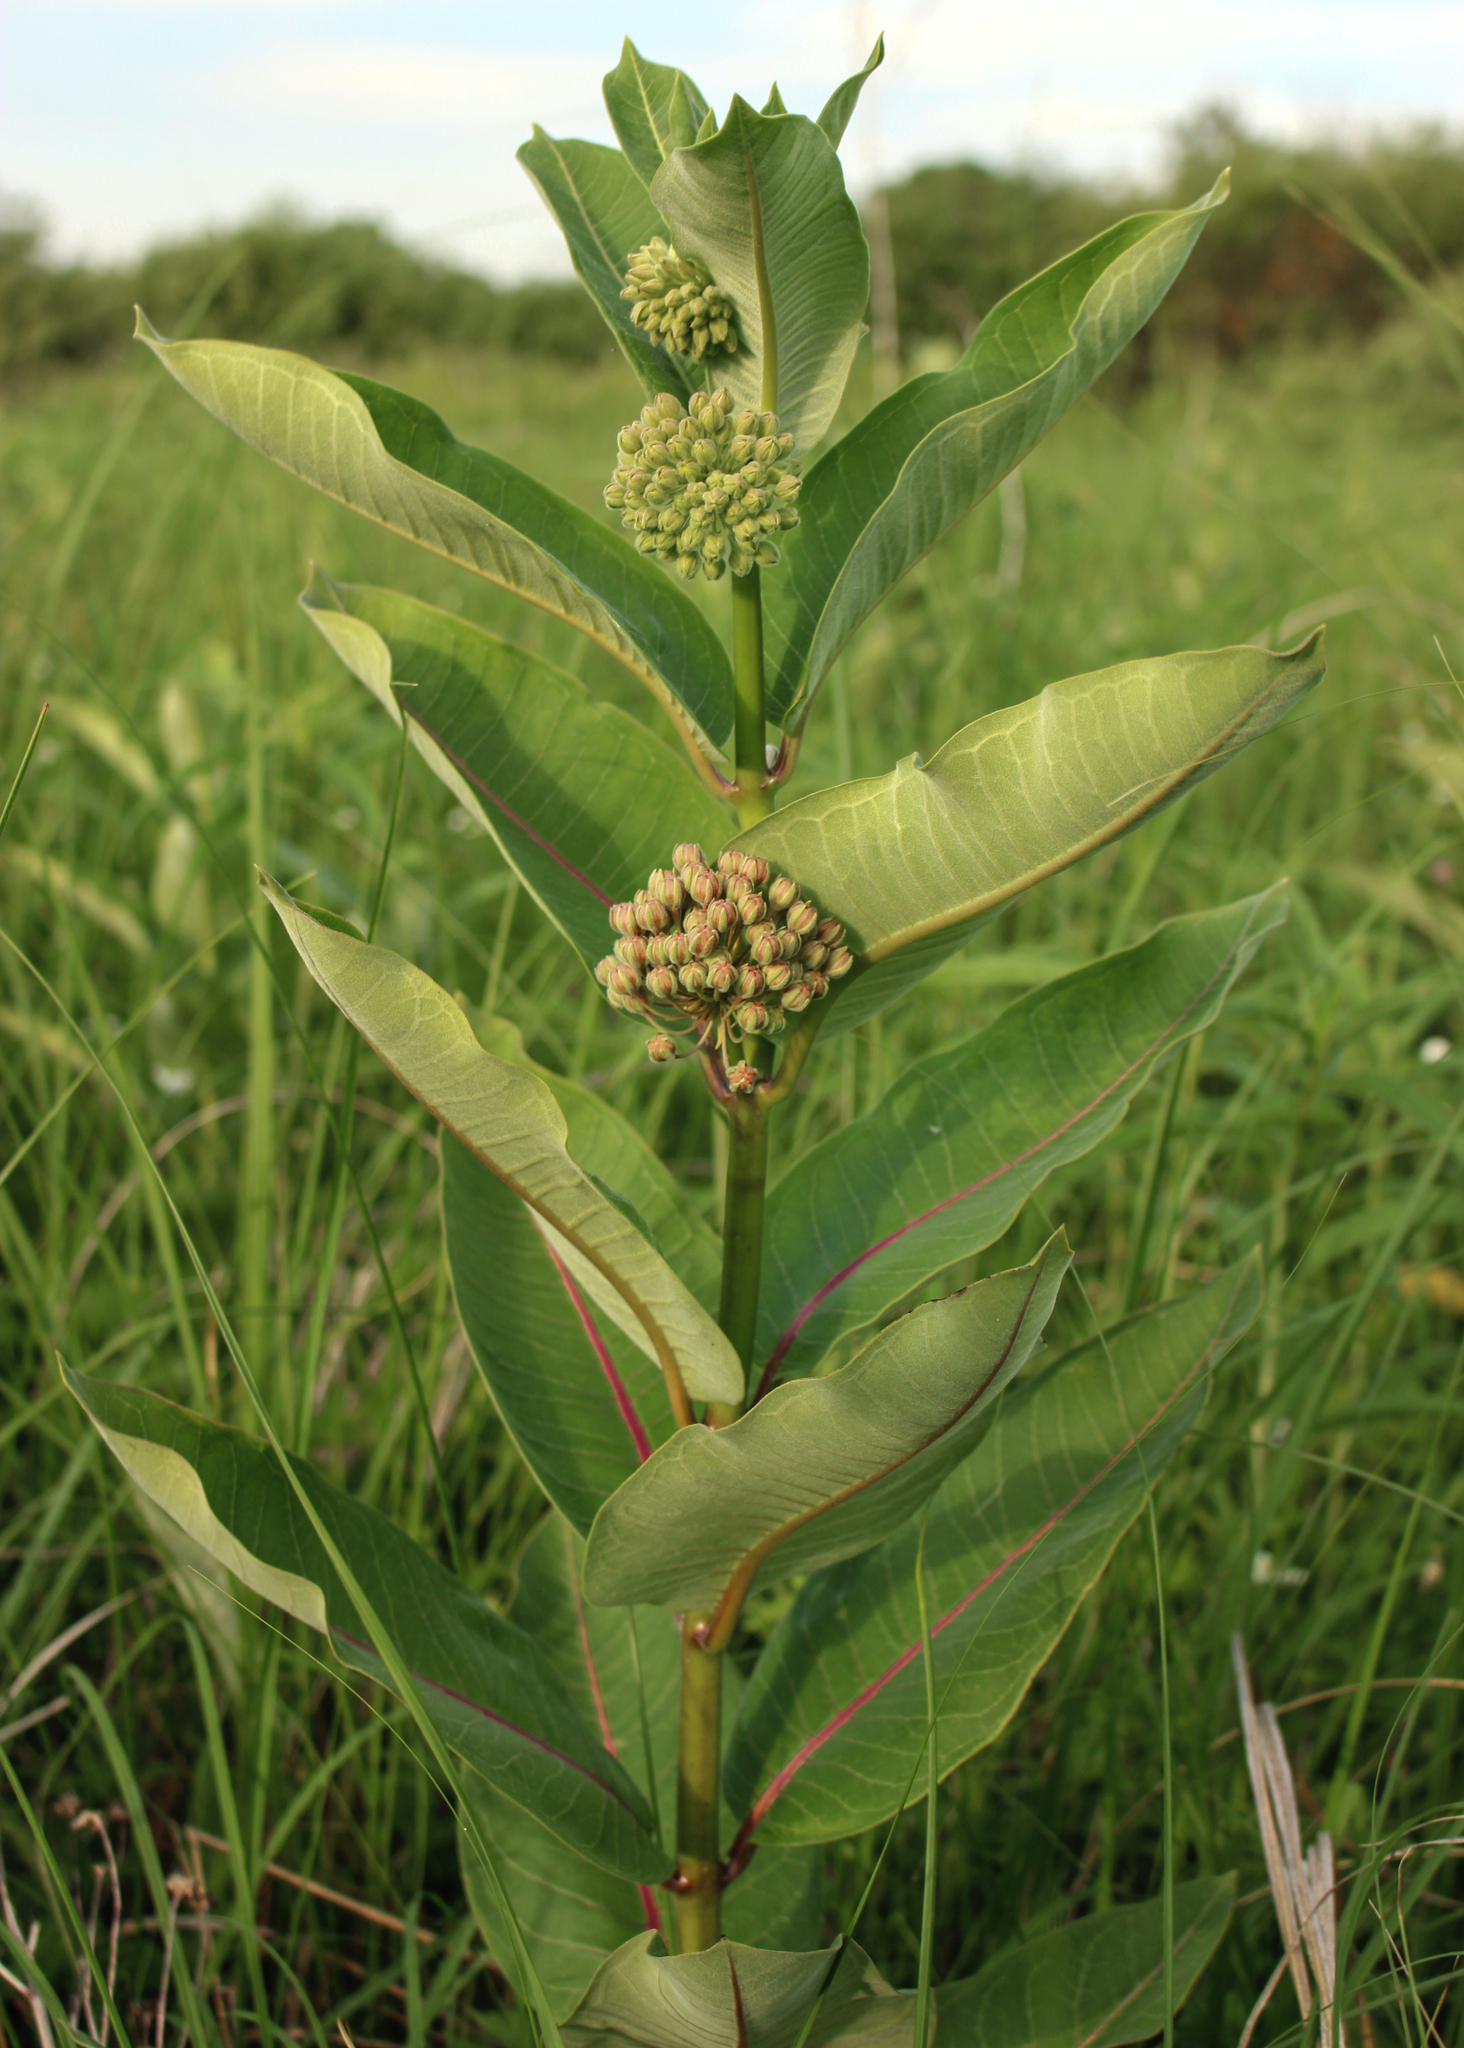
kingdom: Plantae
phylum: Tracheophyta
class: Magnoliopsida
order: Gentianales
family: Apocynaceae
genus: Asclepias
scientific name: Asclepias syriaca
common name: Common milkweed
